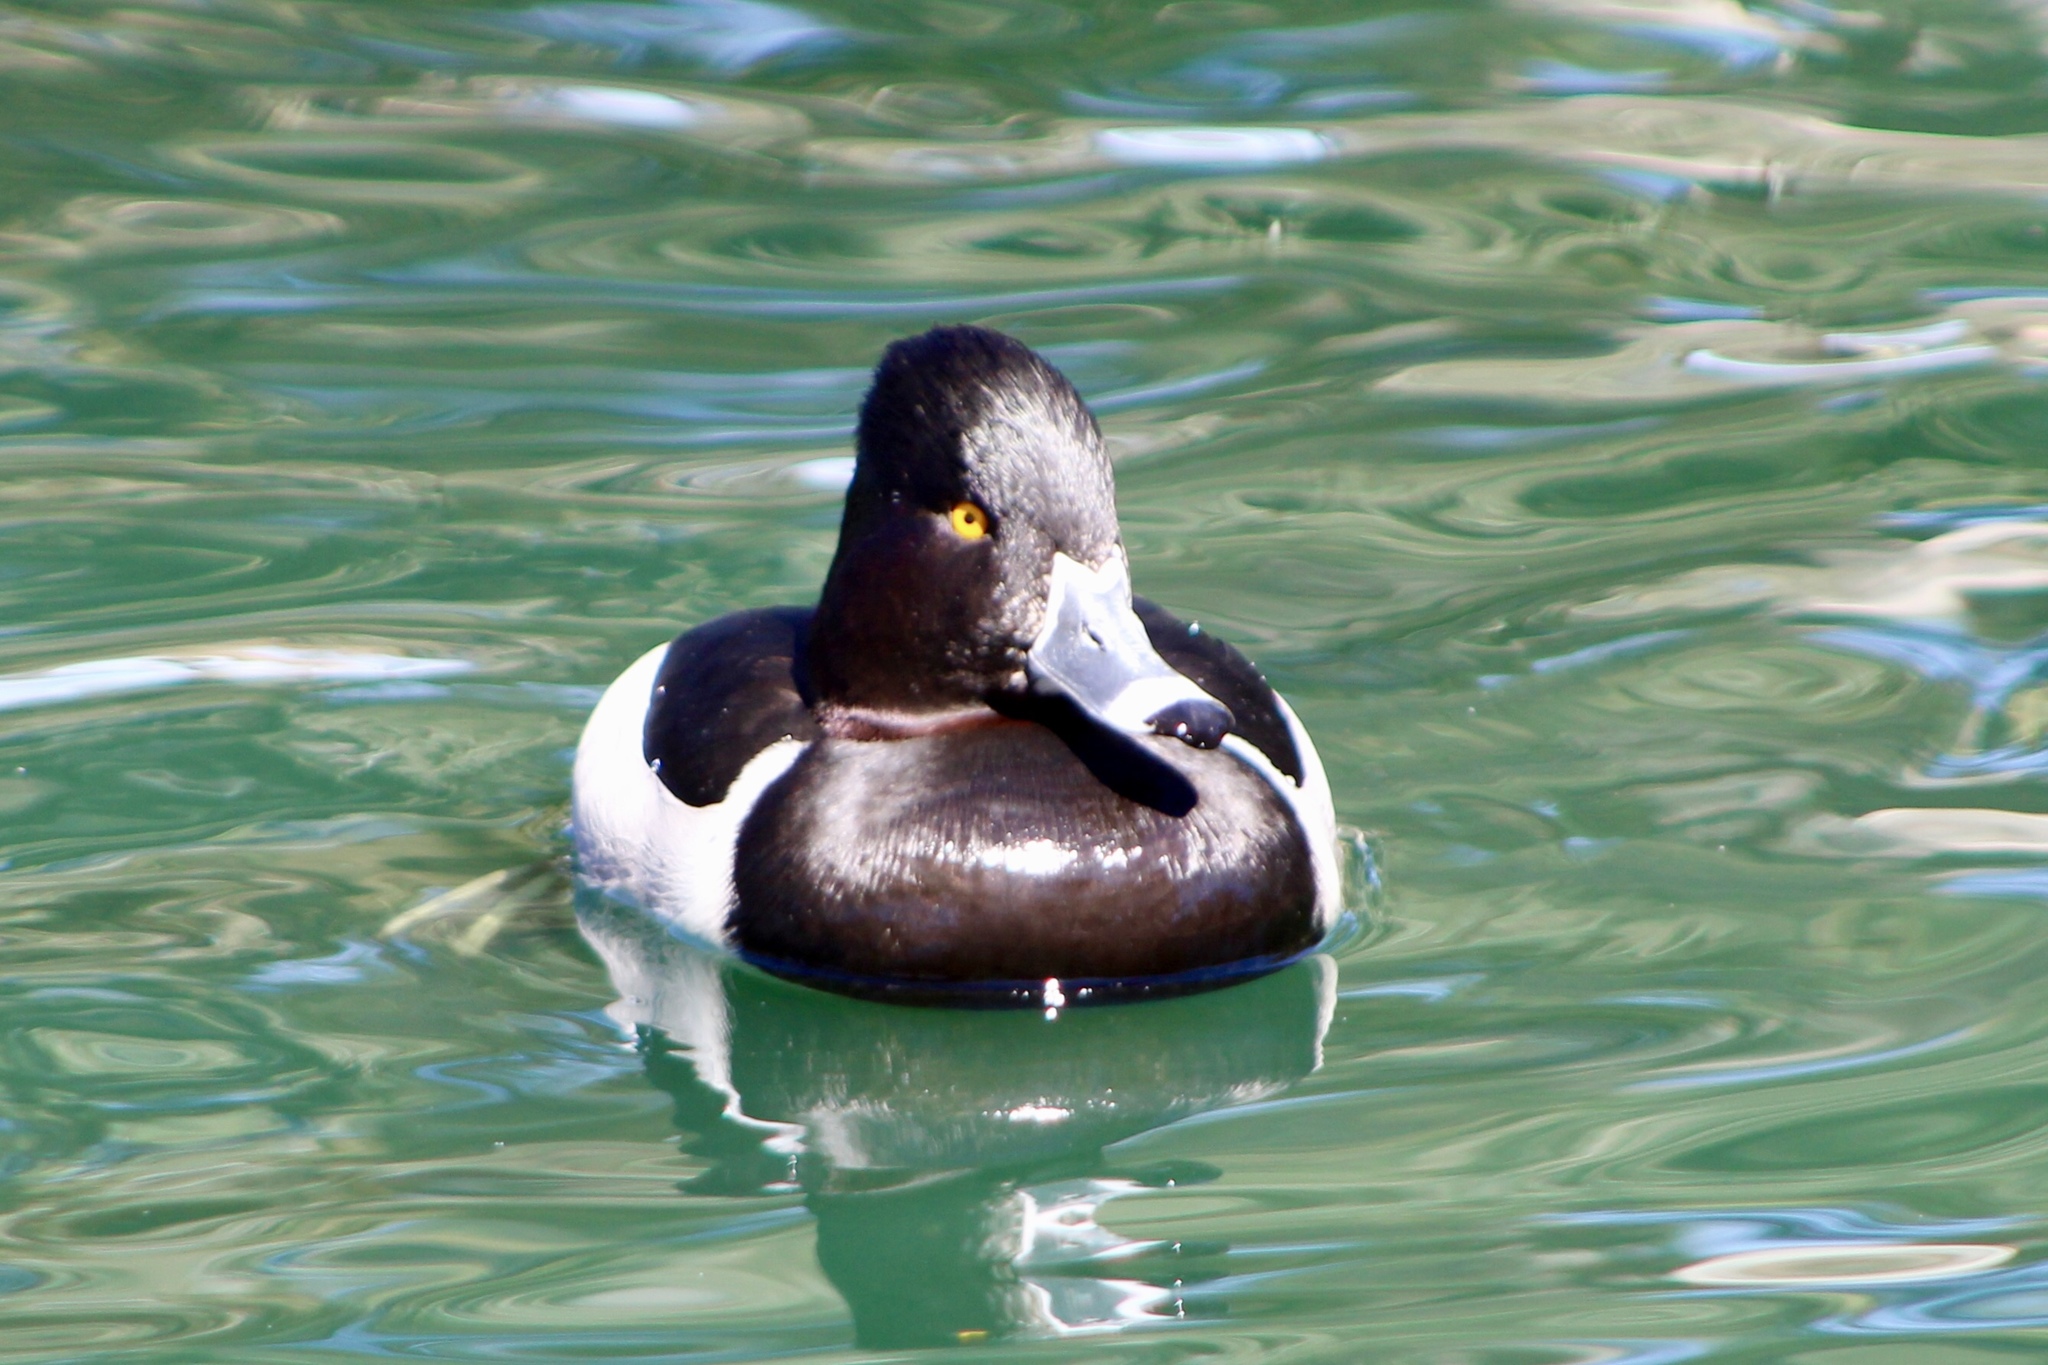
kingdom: Animalia
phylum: Chordata
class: Aves
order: Anseriformes
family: Anatidae
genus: Aythya
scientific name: Aythya collaris
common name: Ring-necked duck
